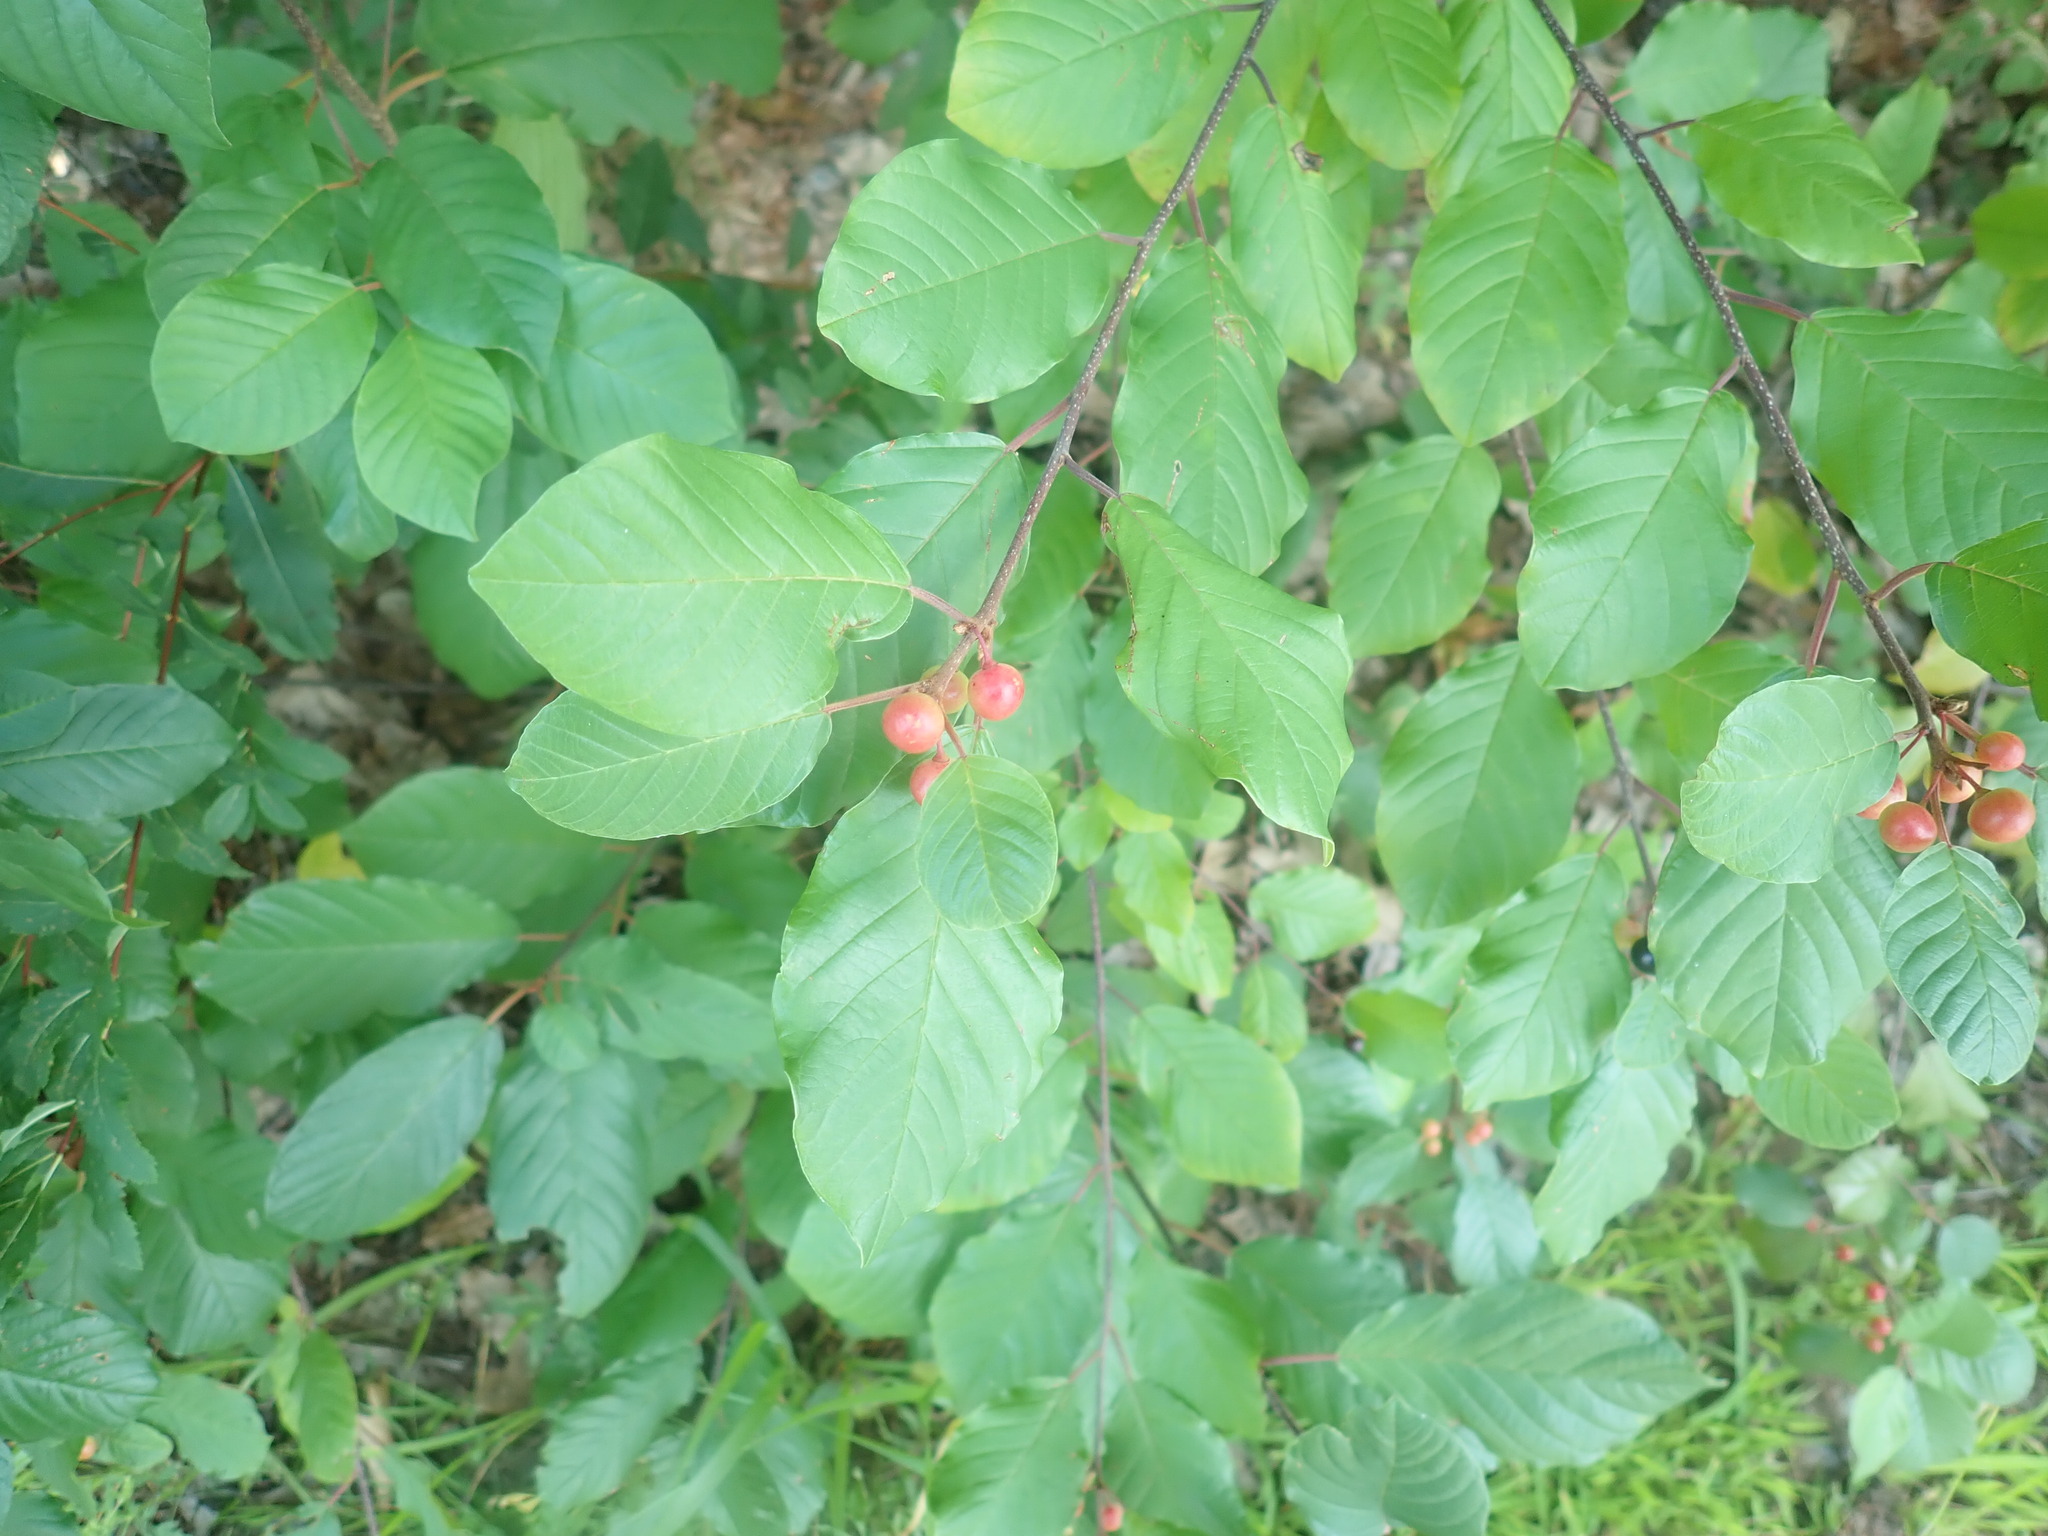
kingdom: Plantae
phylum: Tracheophyta
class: Magnoliopsida
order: Rosales
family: Rhamnaceae
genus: Frangula
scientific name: Frangula alnus
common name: Alder buckthorn
